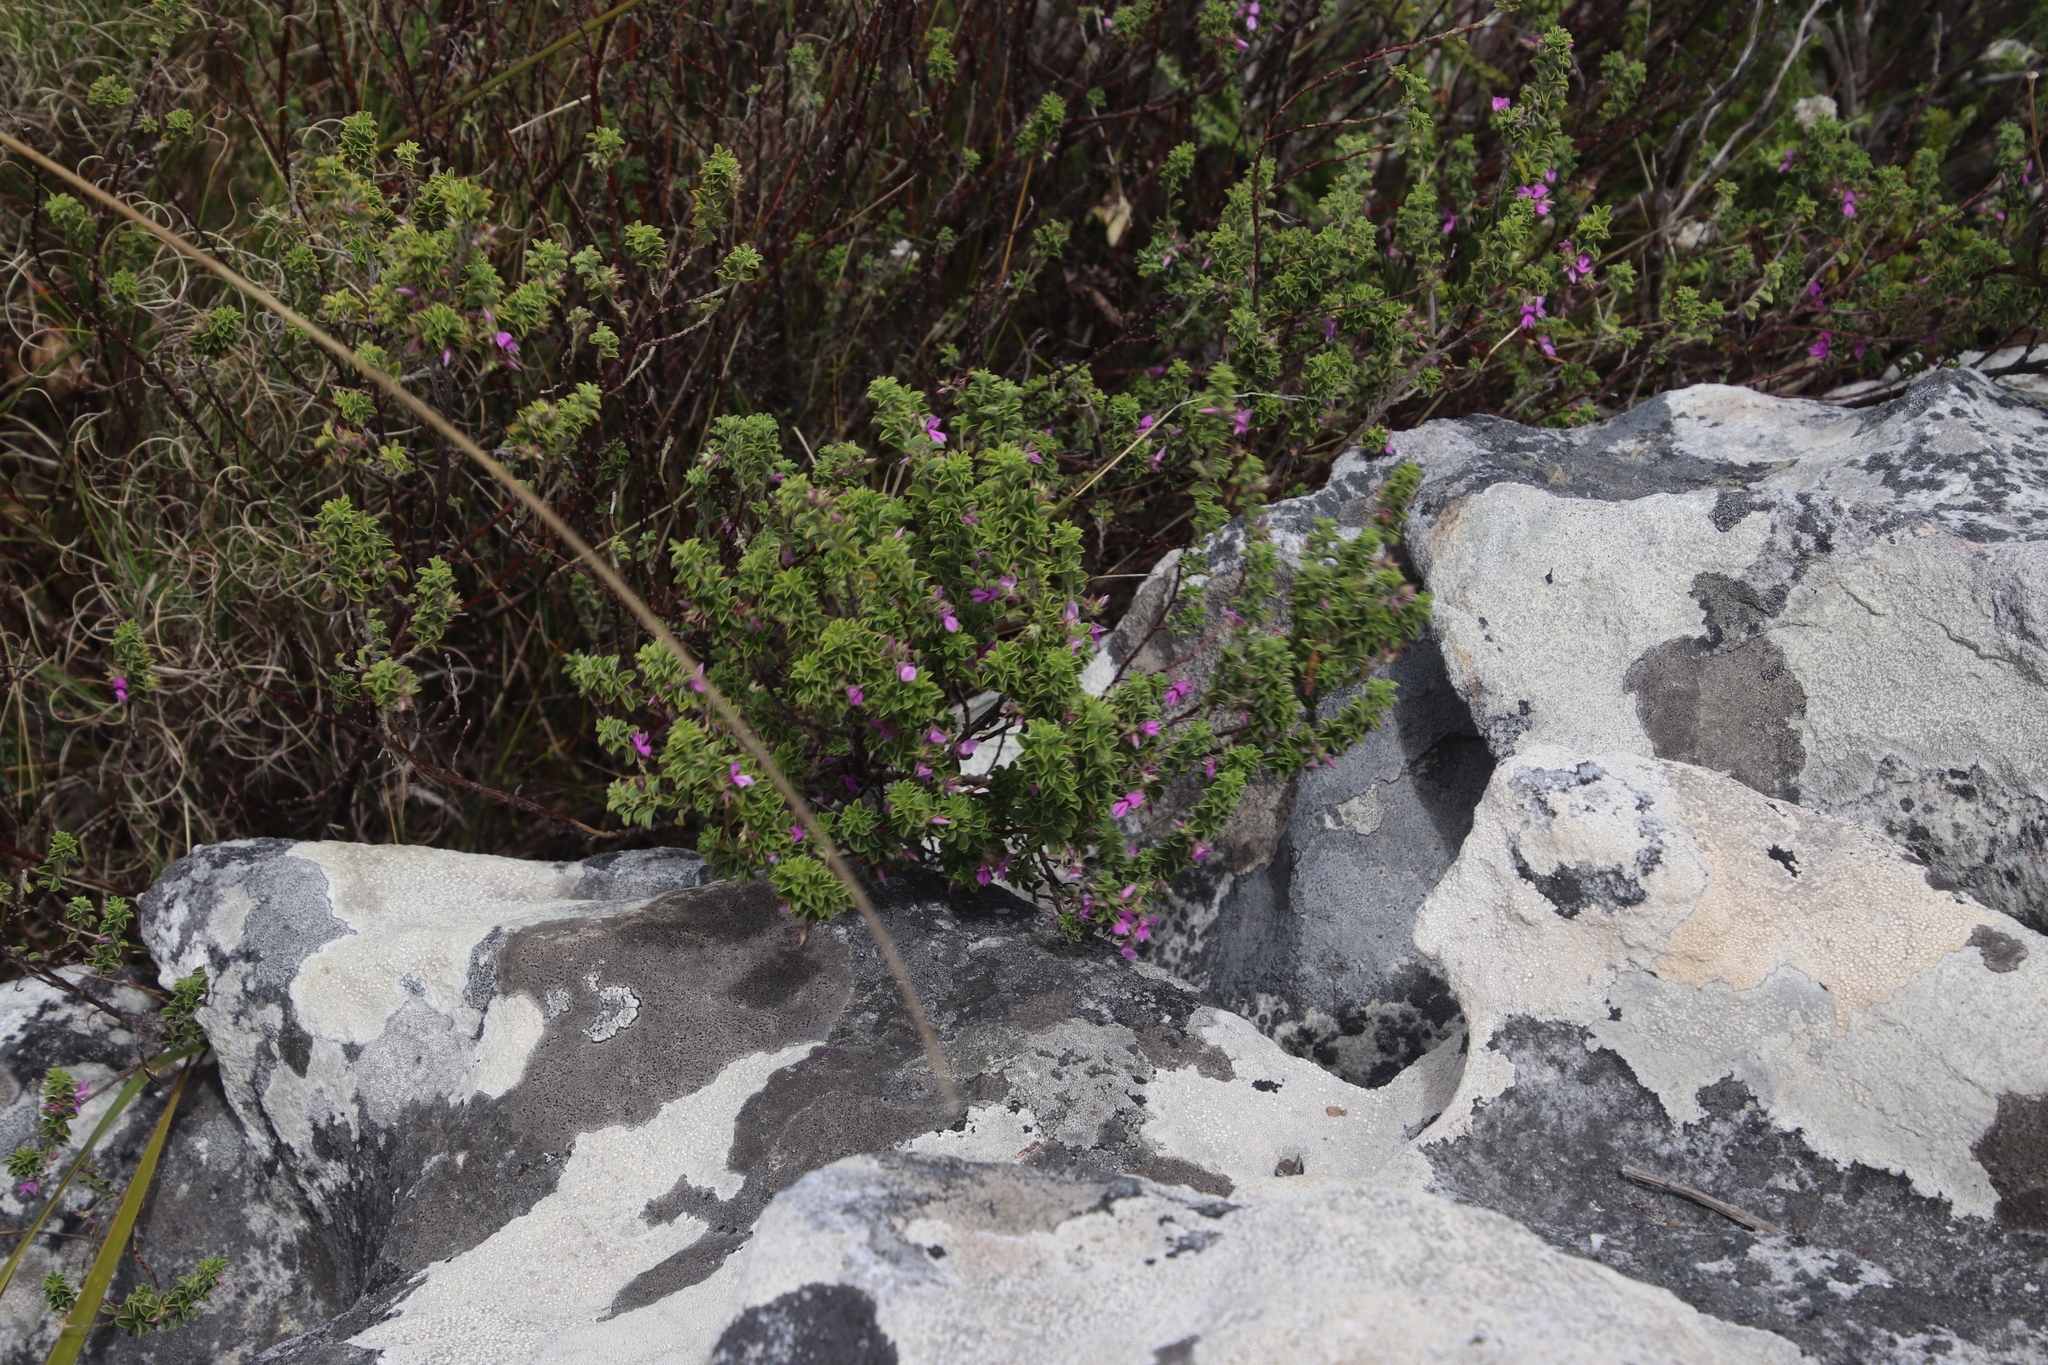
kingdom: Plantae
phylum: Tracheophyta
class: Magnoliopsida
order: Fabales
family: Fabaceae
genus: Indigofera
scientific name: Indigofera candolleana
